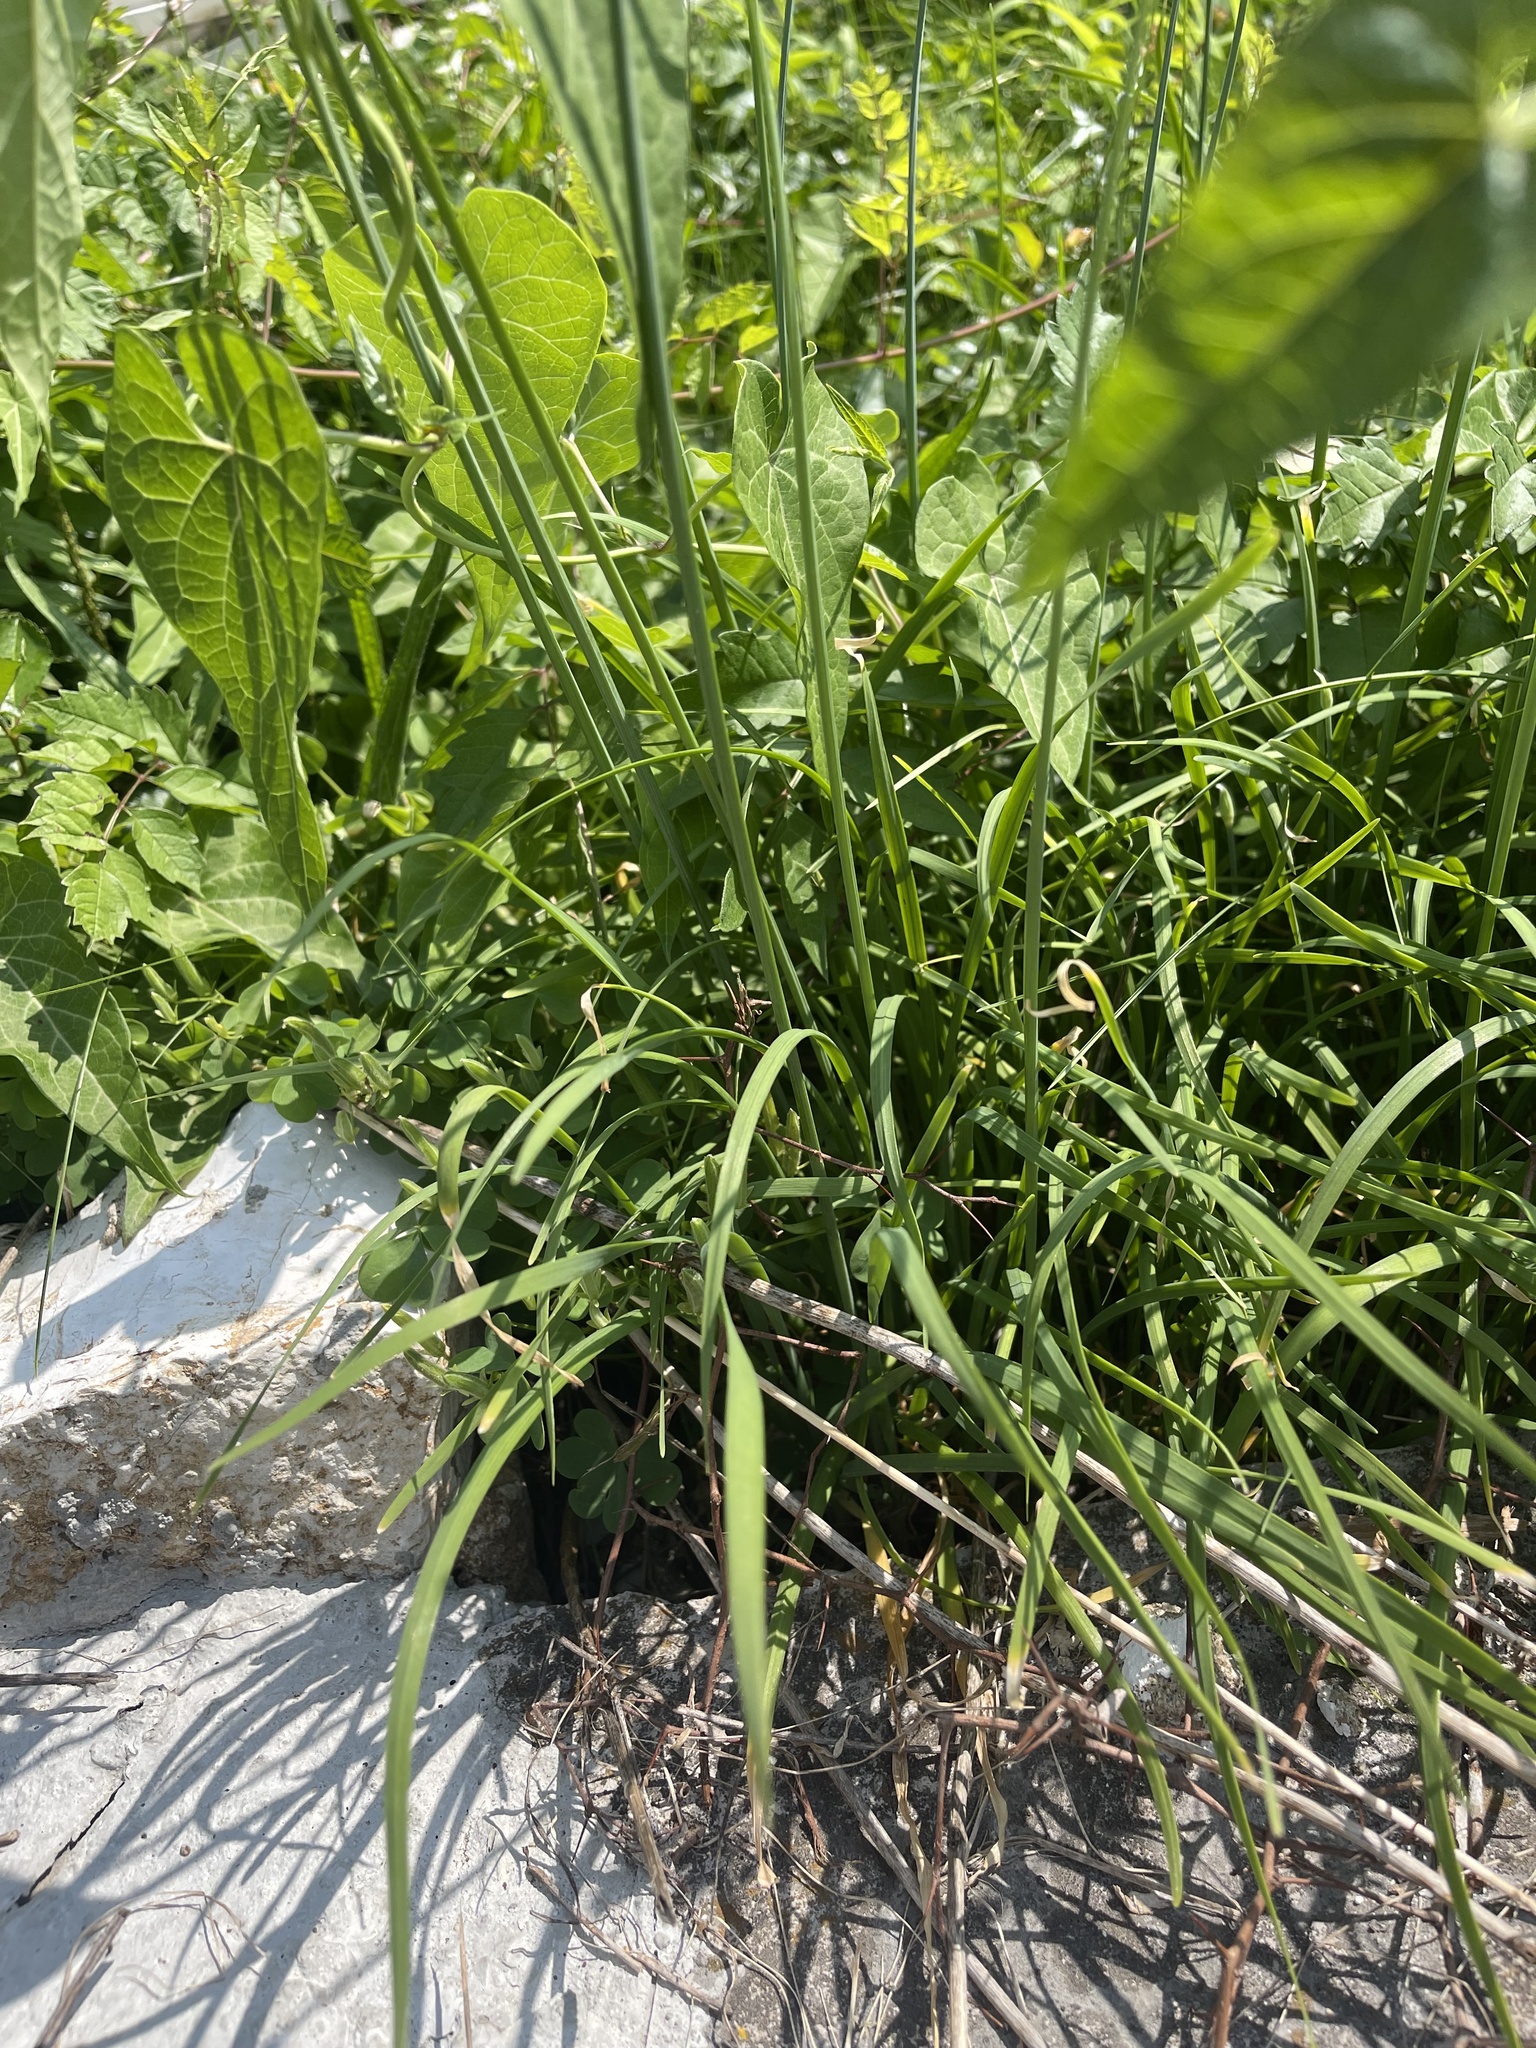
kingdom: Plantae
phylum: Tracheophyta
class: Liliopsida
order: Asparagales
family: Amaryllidaceae
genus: Allium
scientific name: Allium tuberosum
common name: Chinese chives
